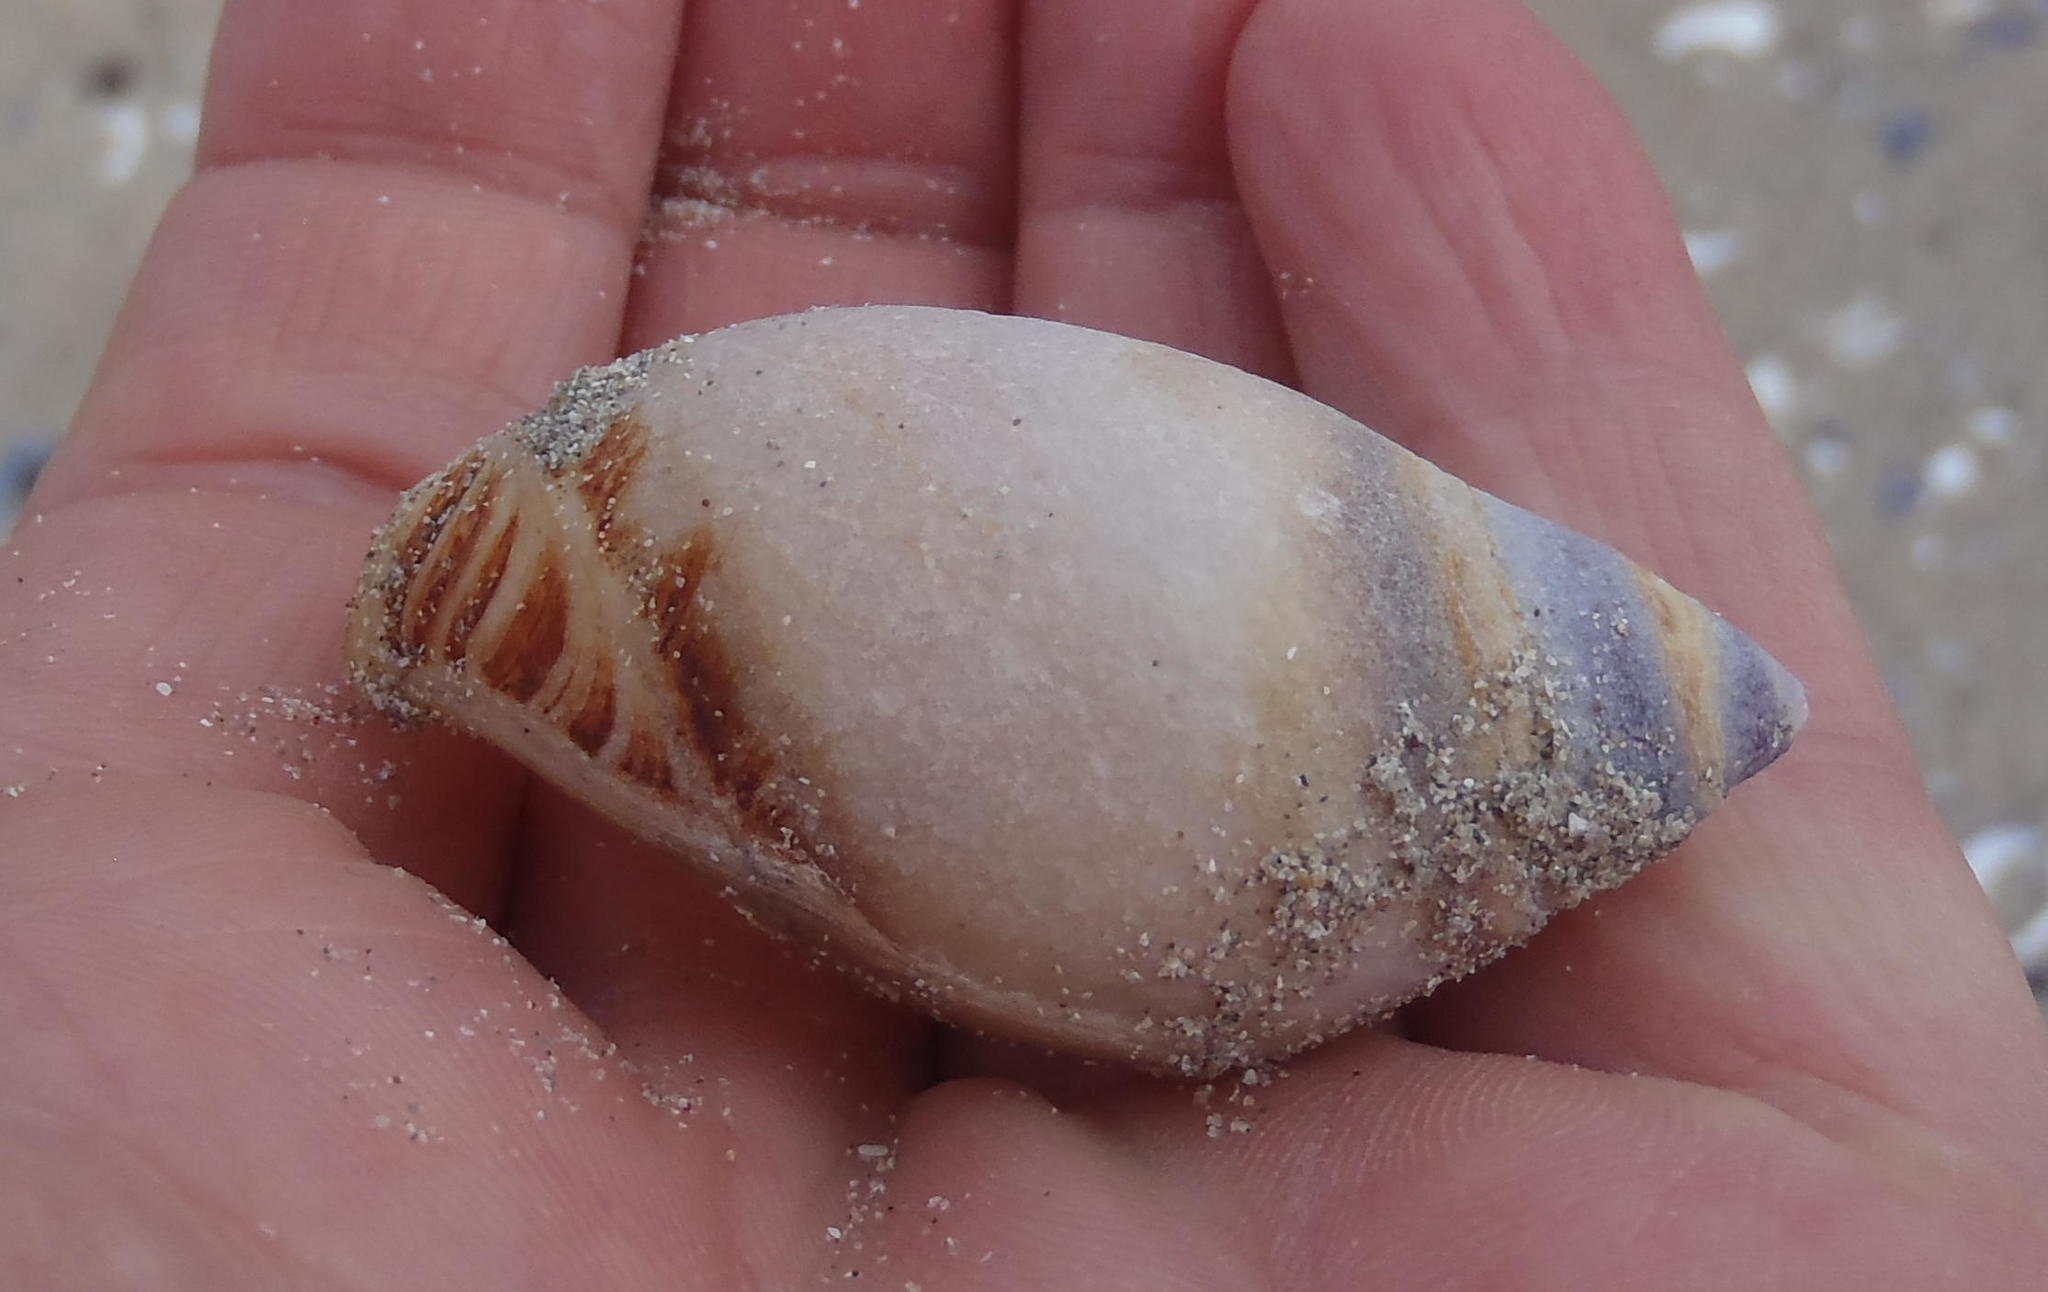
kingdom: Animalia
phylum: Mollusca
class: Gastropoda
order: Neogastropoda
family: Nassariidae
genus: Bullia
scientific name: Bullia laevissima
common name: Fat plough shell
